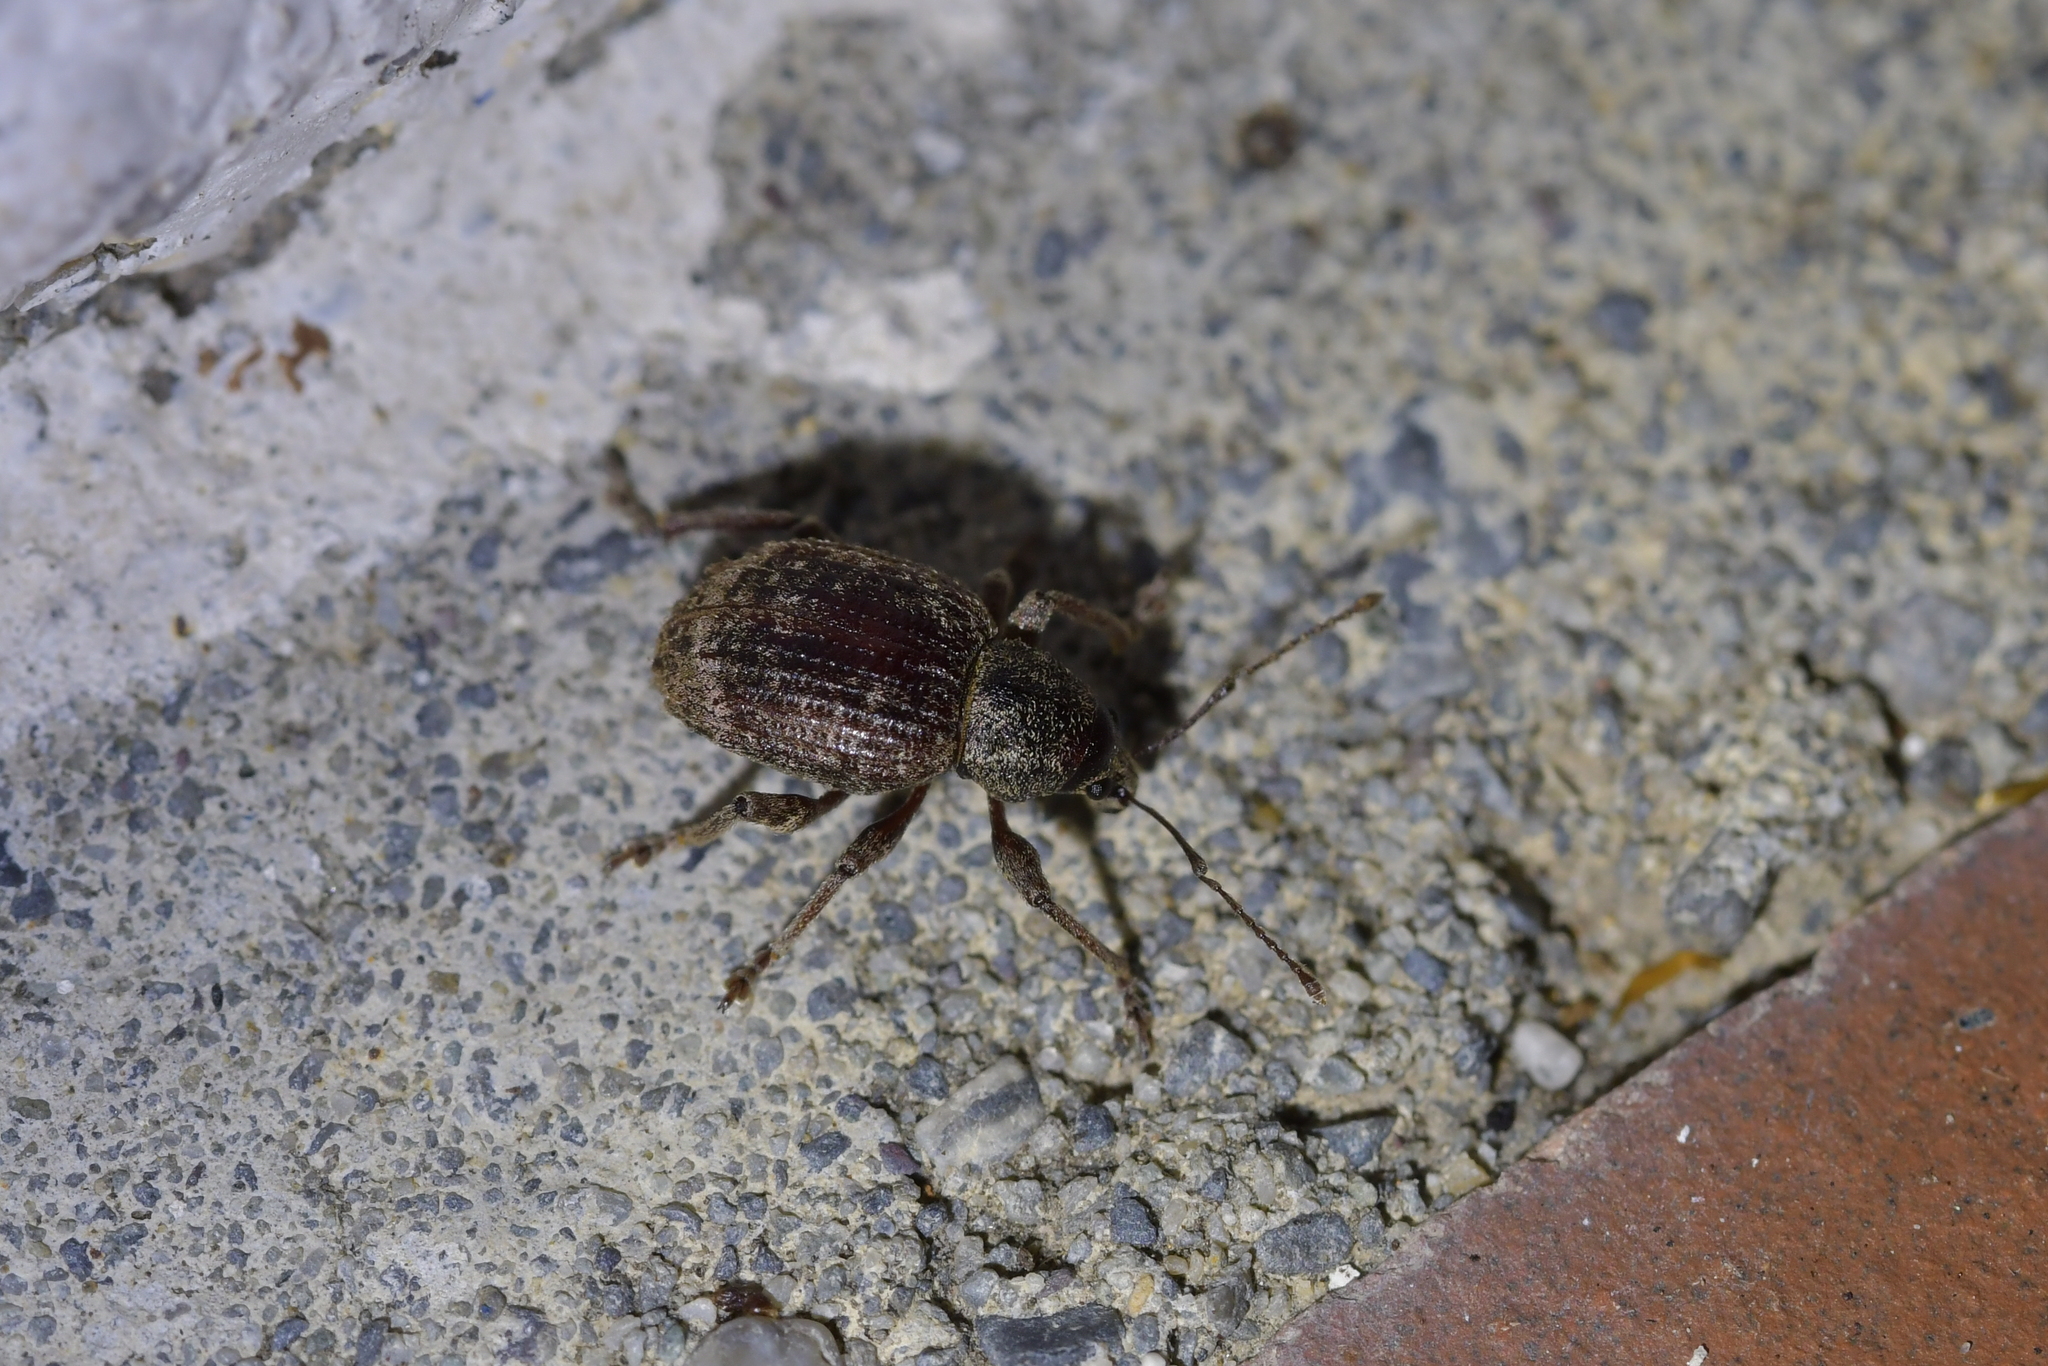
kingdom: Animalia
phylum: Arthropoda
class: Insecta
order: Coleoptera
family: Curculionidae
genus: Phlyctinus
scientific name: Phlyctinus callosus
